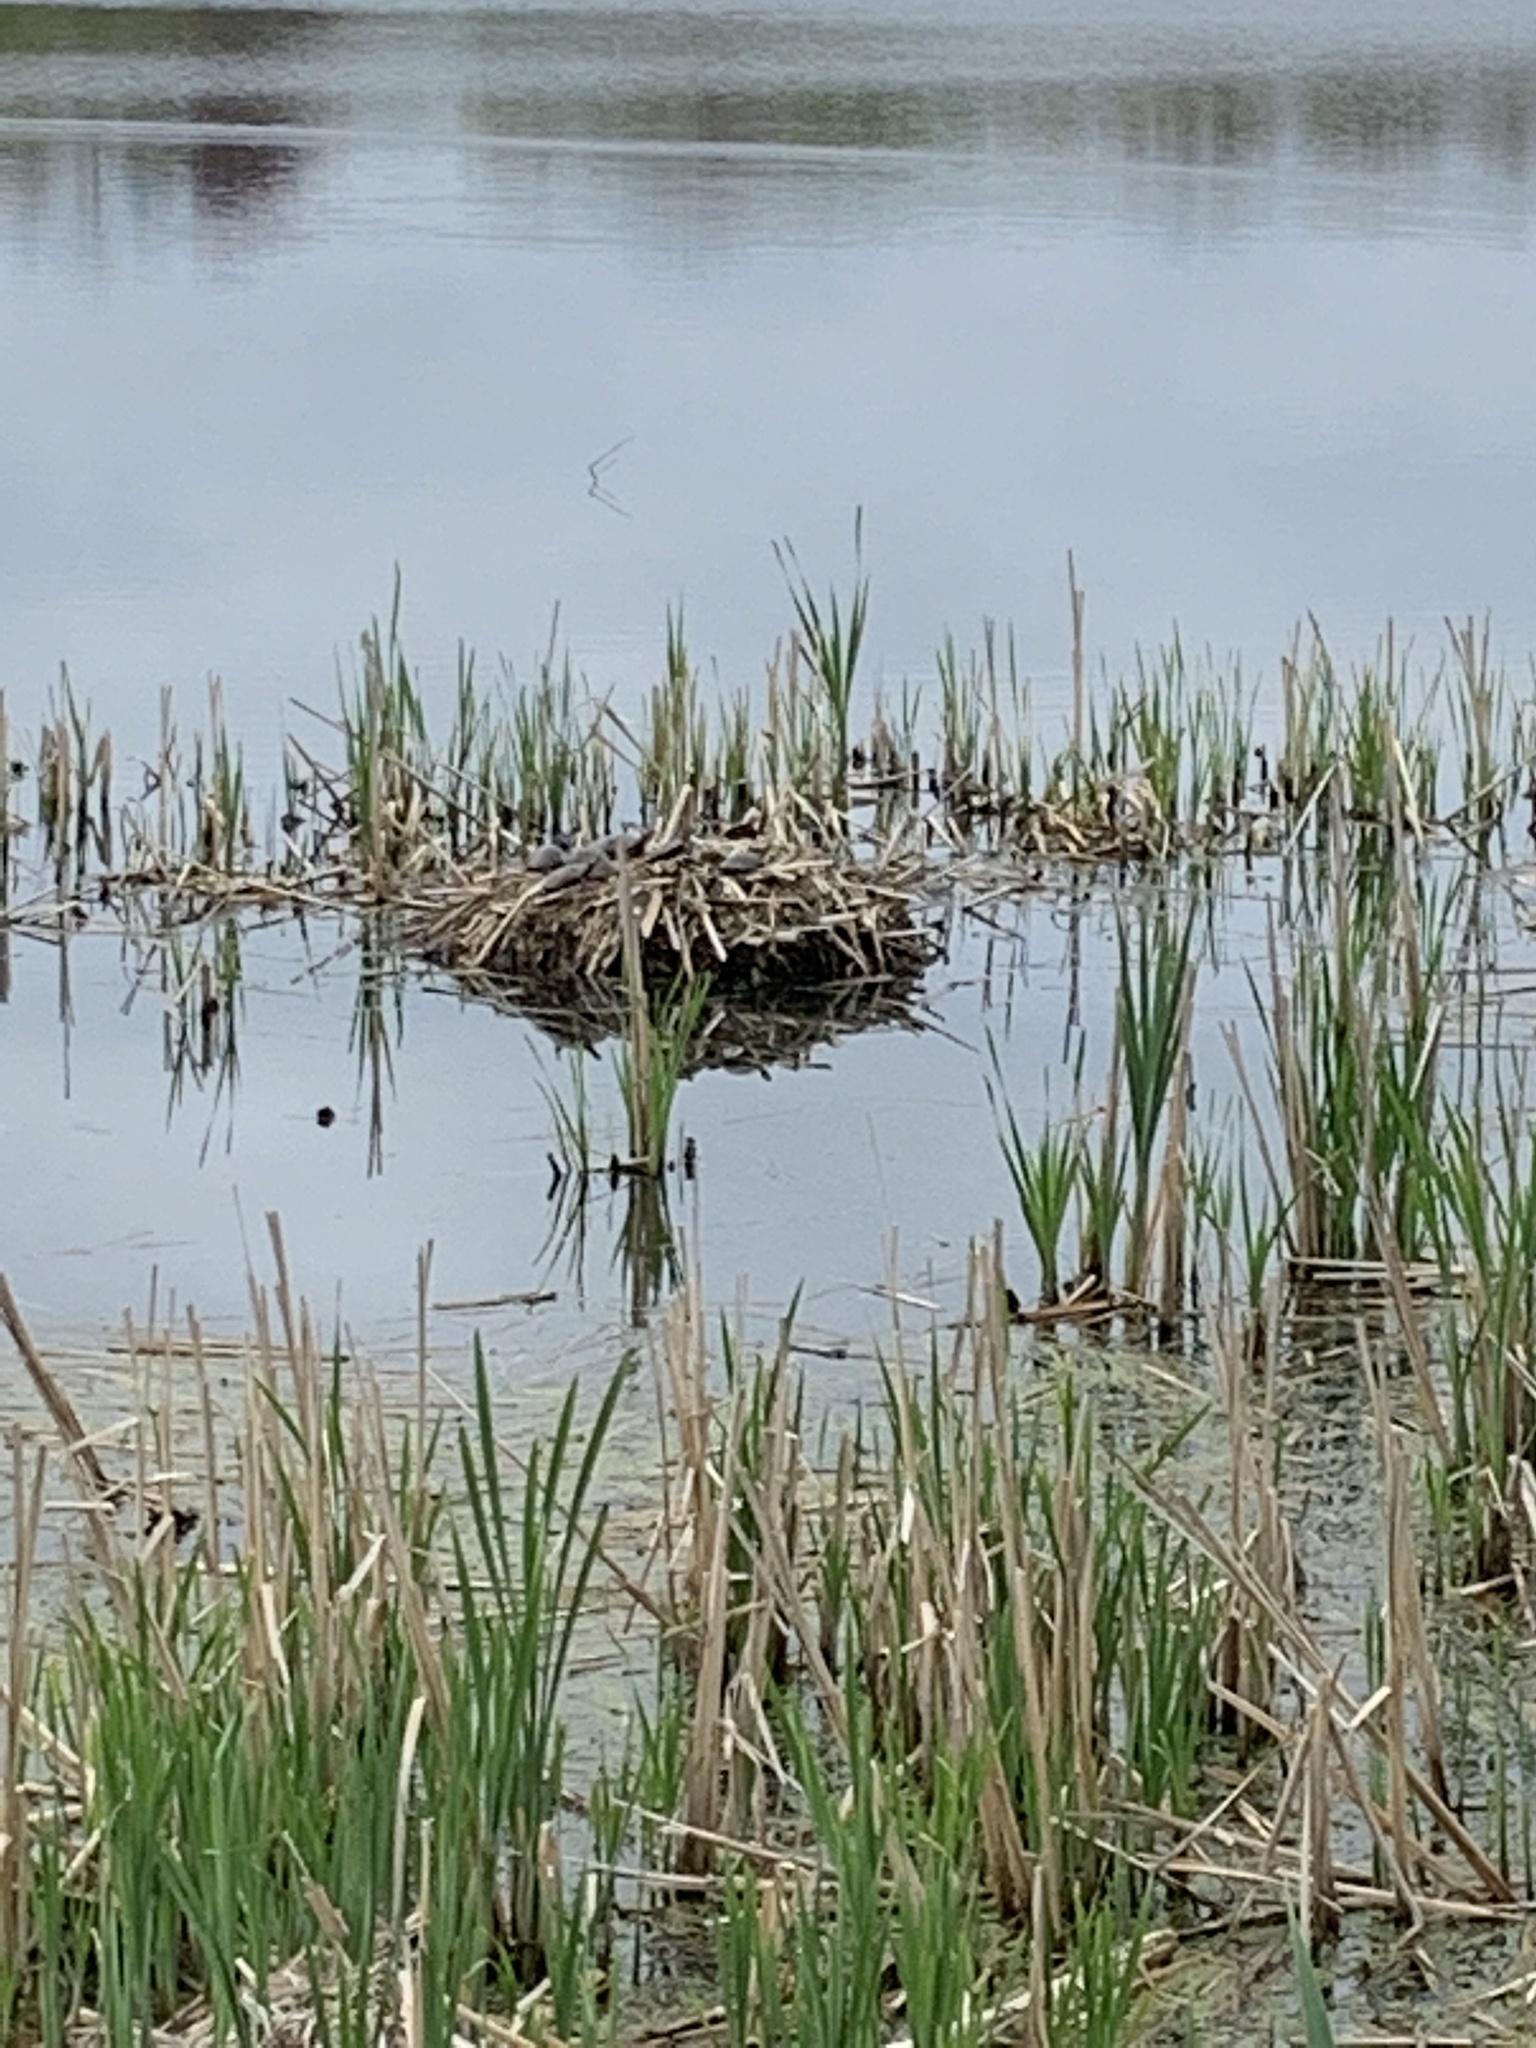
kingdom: Animalia
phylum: Chordata
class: Testudines
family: Emydidae
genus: Chrysemys
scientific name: Chrysemys picta
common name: Painted turtle
